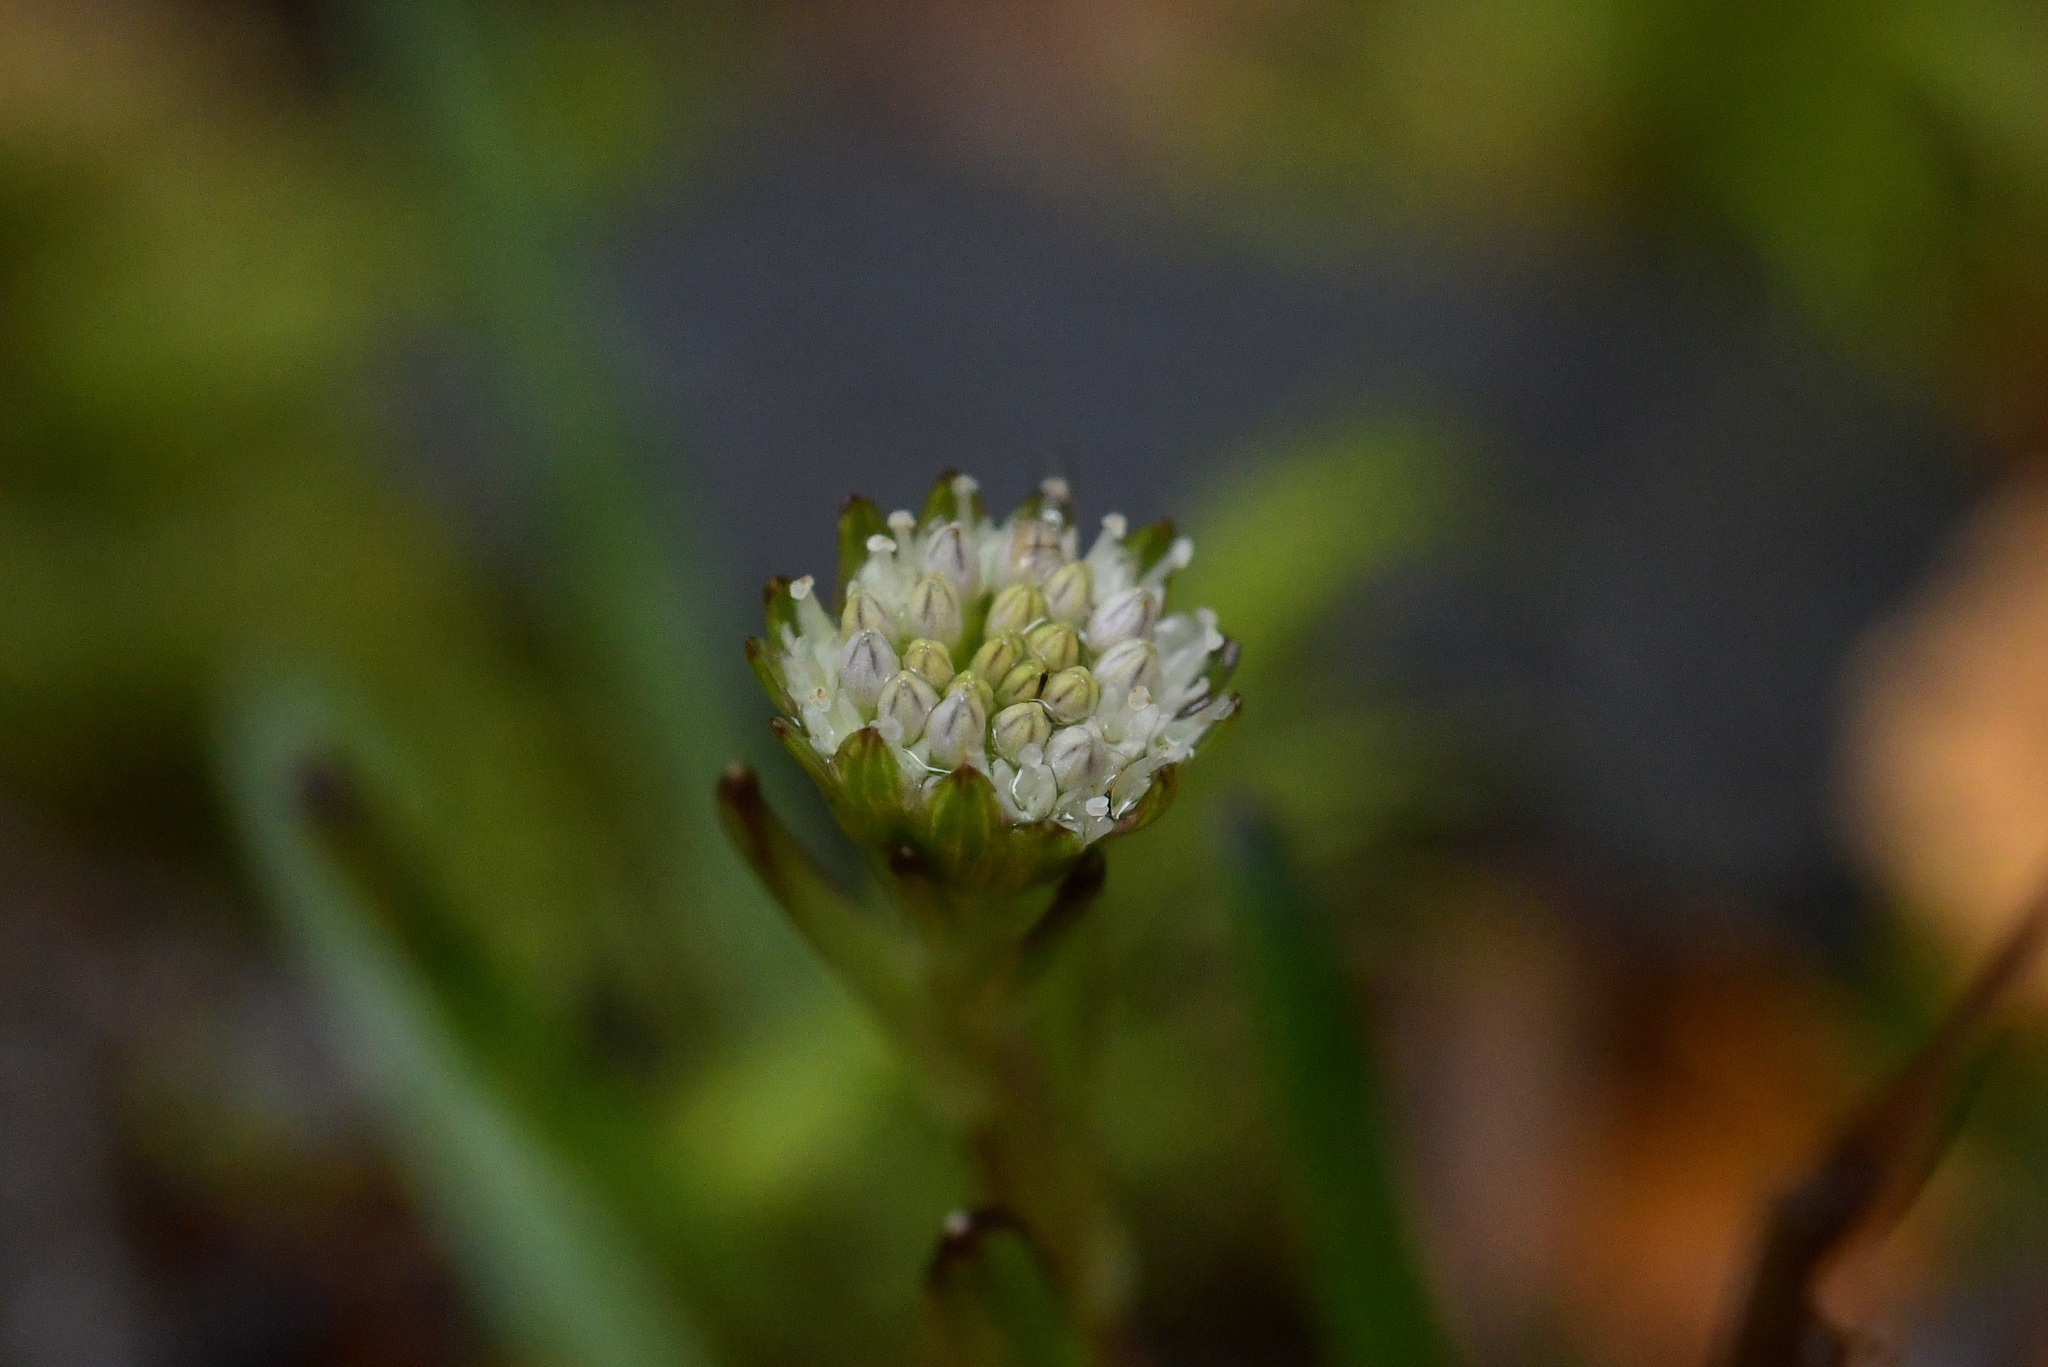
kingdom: Plantae
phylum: Tracheophyta
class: Magnoliopsida
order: Asterales
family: Asteraceae
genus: Abrotanella
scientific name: Abrotanella linearis
